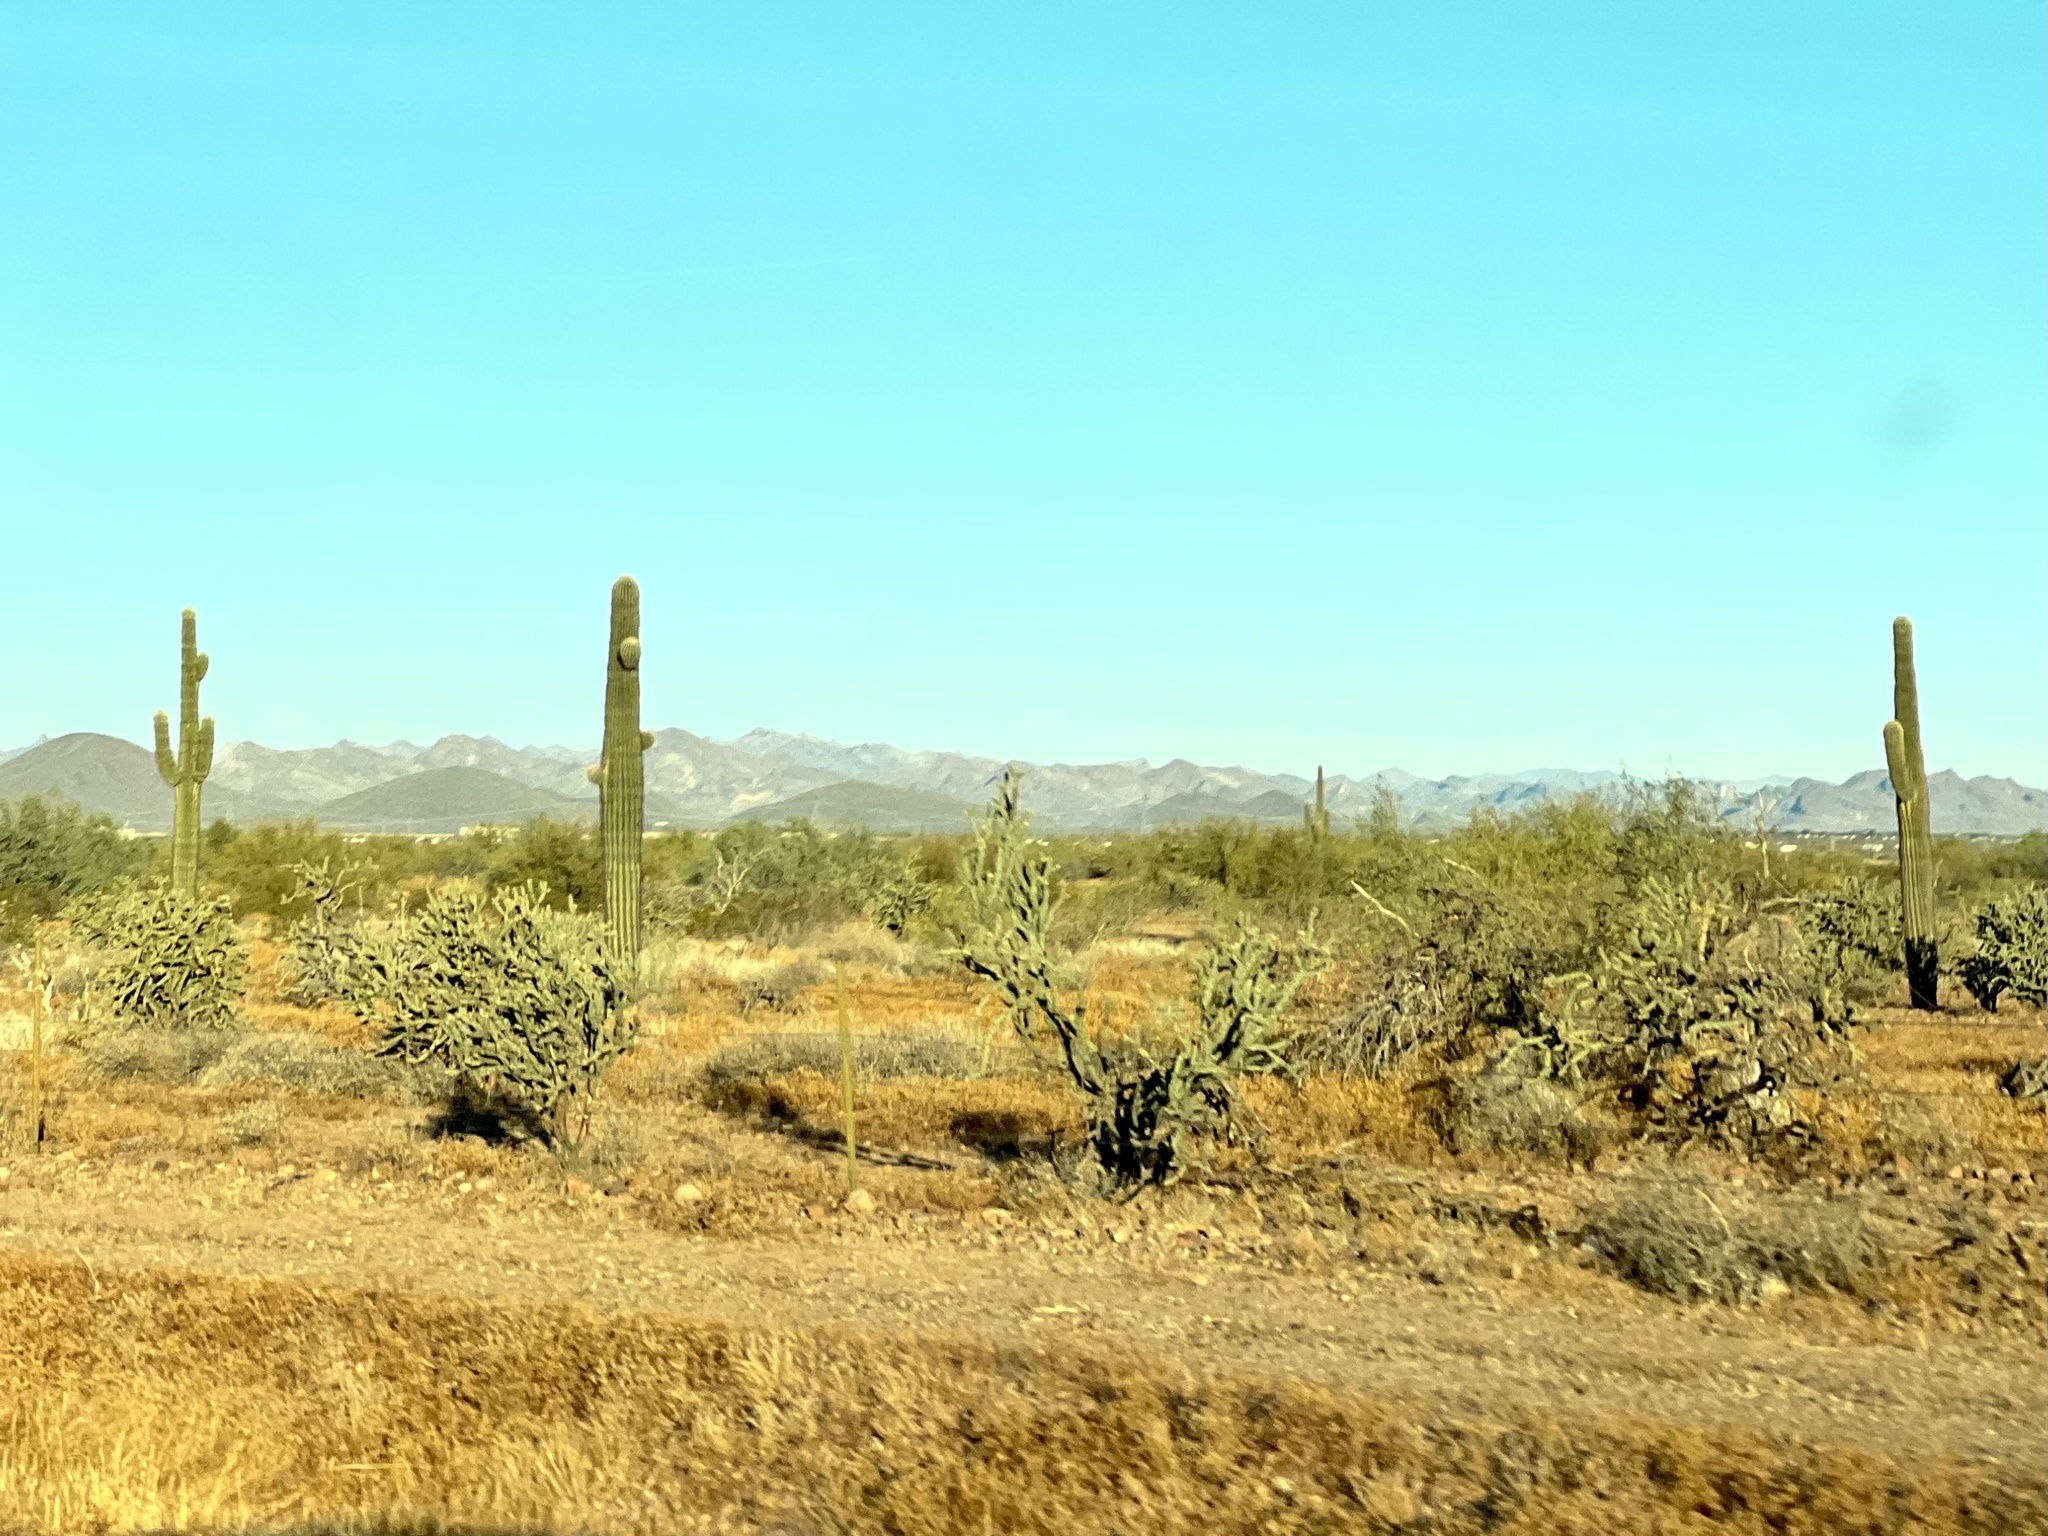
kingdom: Plantae
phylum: Tracheophyta
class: Magnoliopsida
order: Caryophyllales
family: Cactaceae
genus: Carnegiea
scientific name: Carnegiea gigantea
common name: Saguaro
